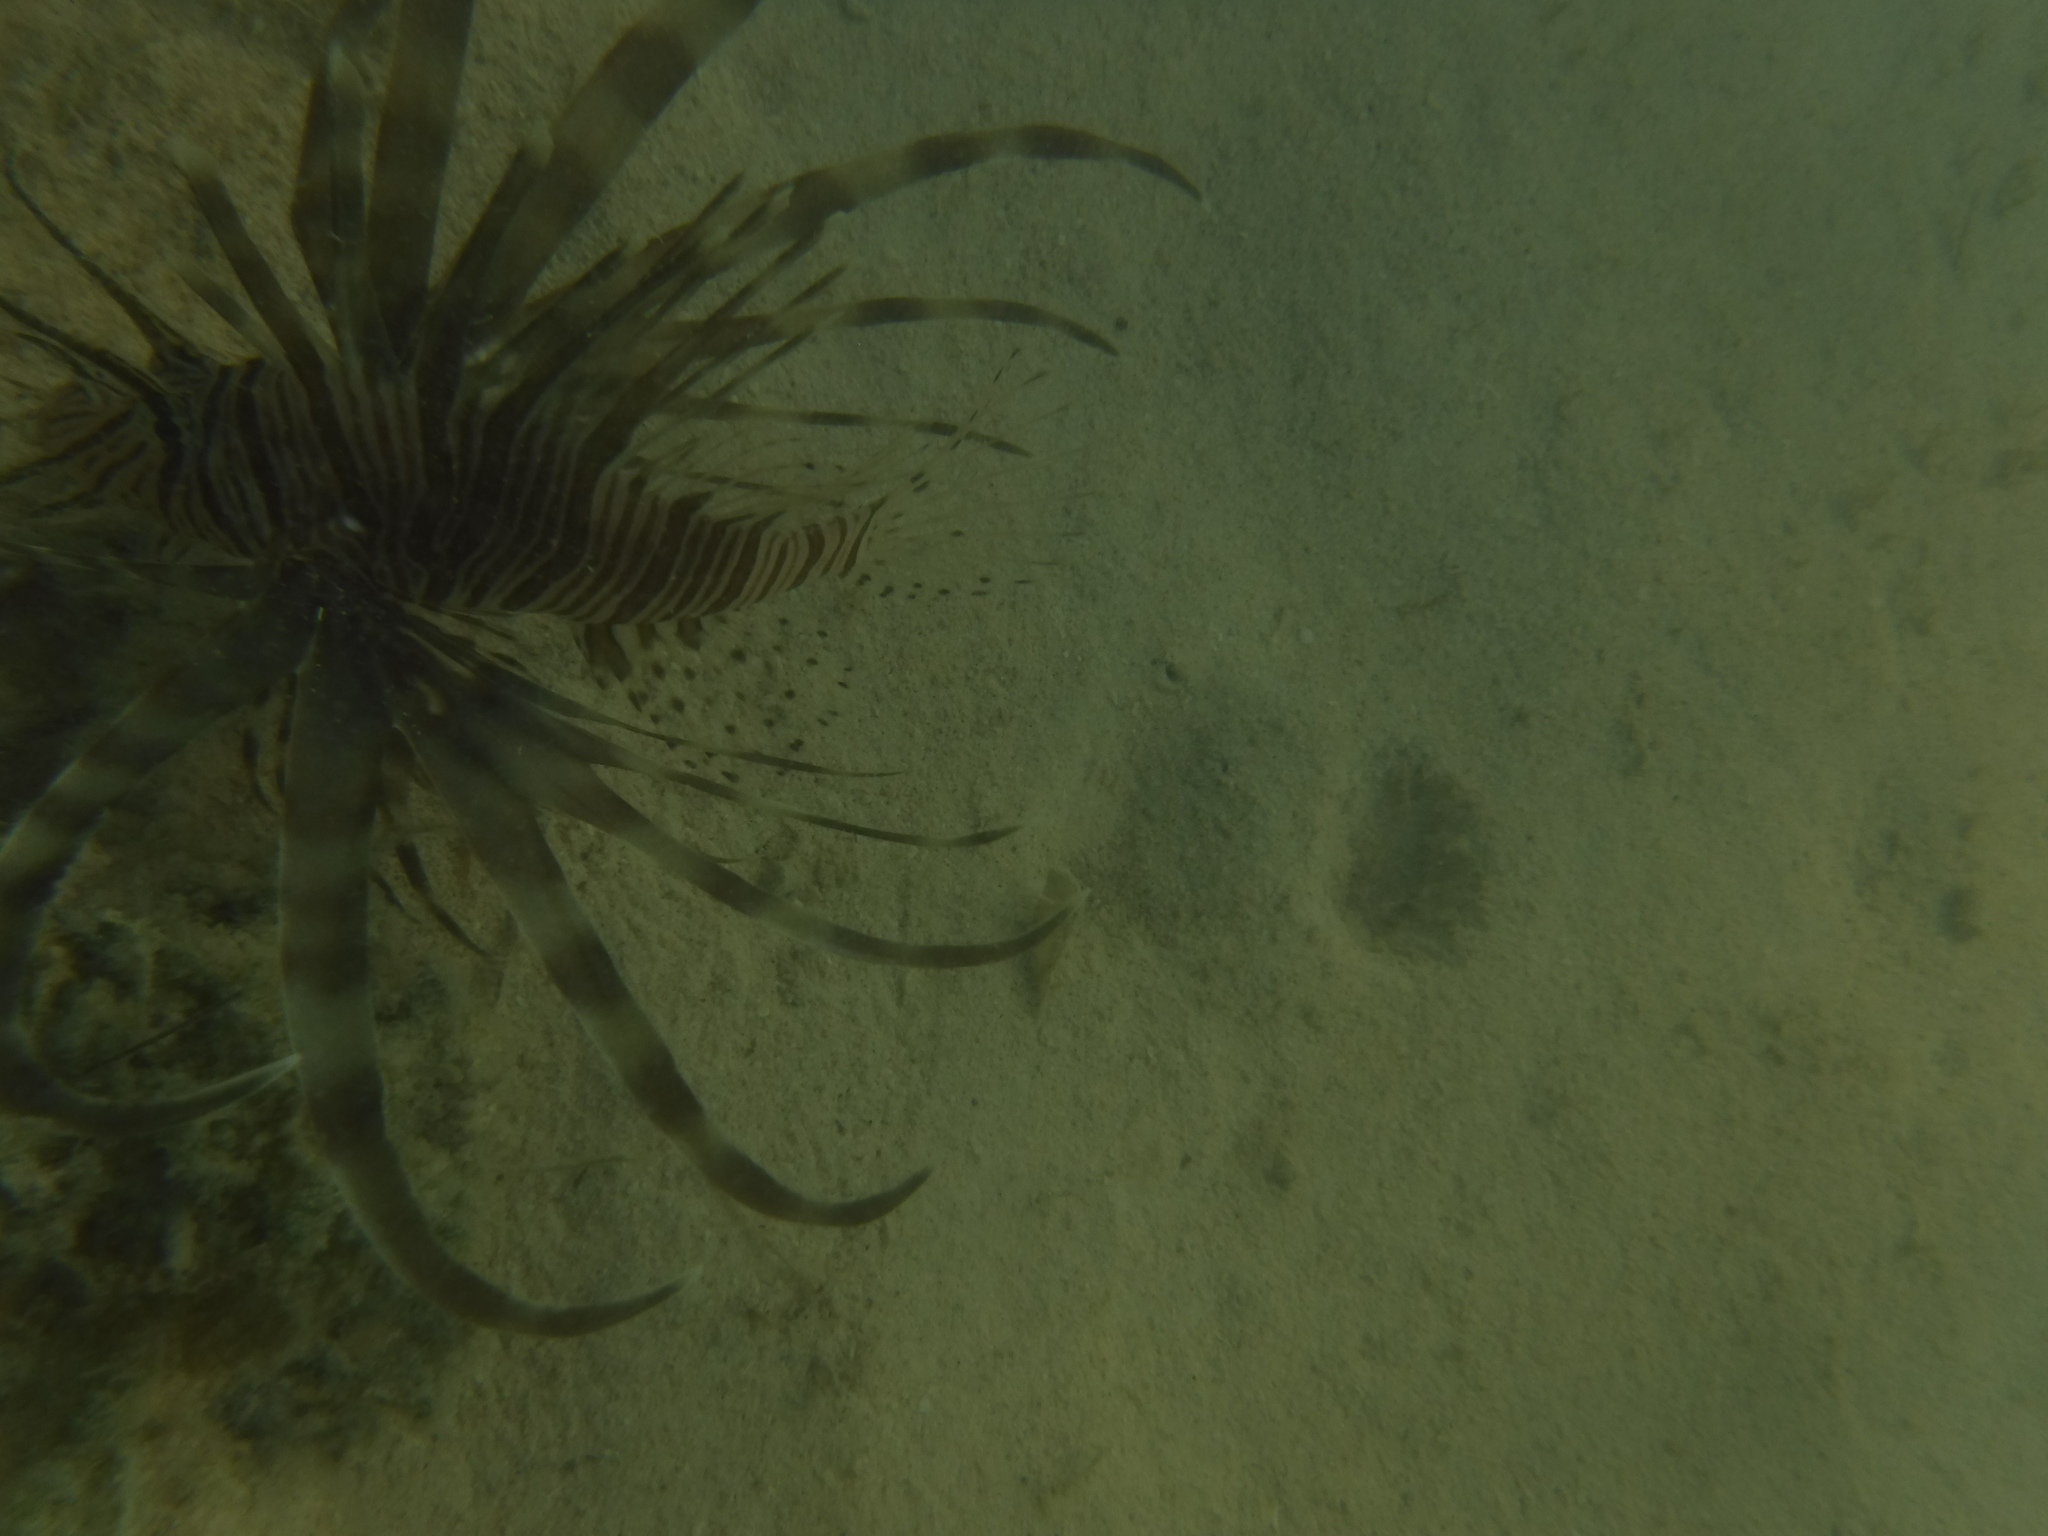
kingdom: Animalia
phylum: Chordata
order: Scorpaeniformes
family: Scorpaenidae
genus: Pterois
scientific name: Pterois volitans
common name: Lionfish
